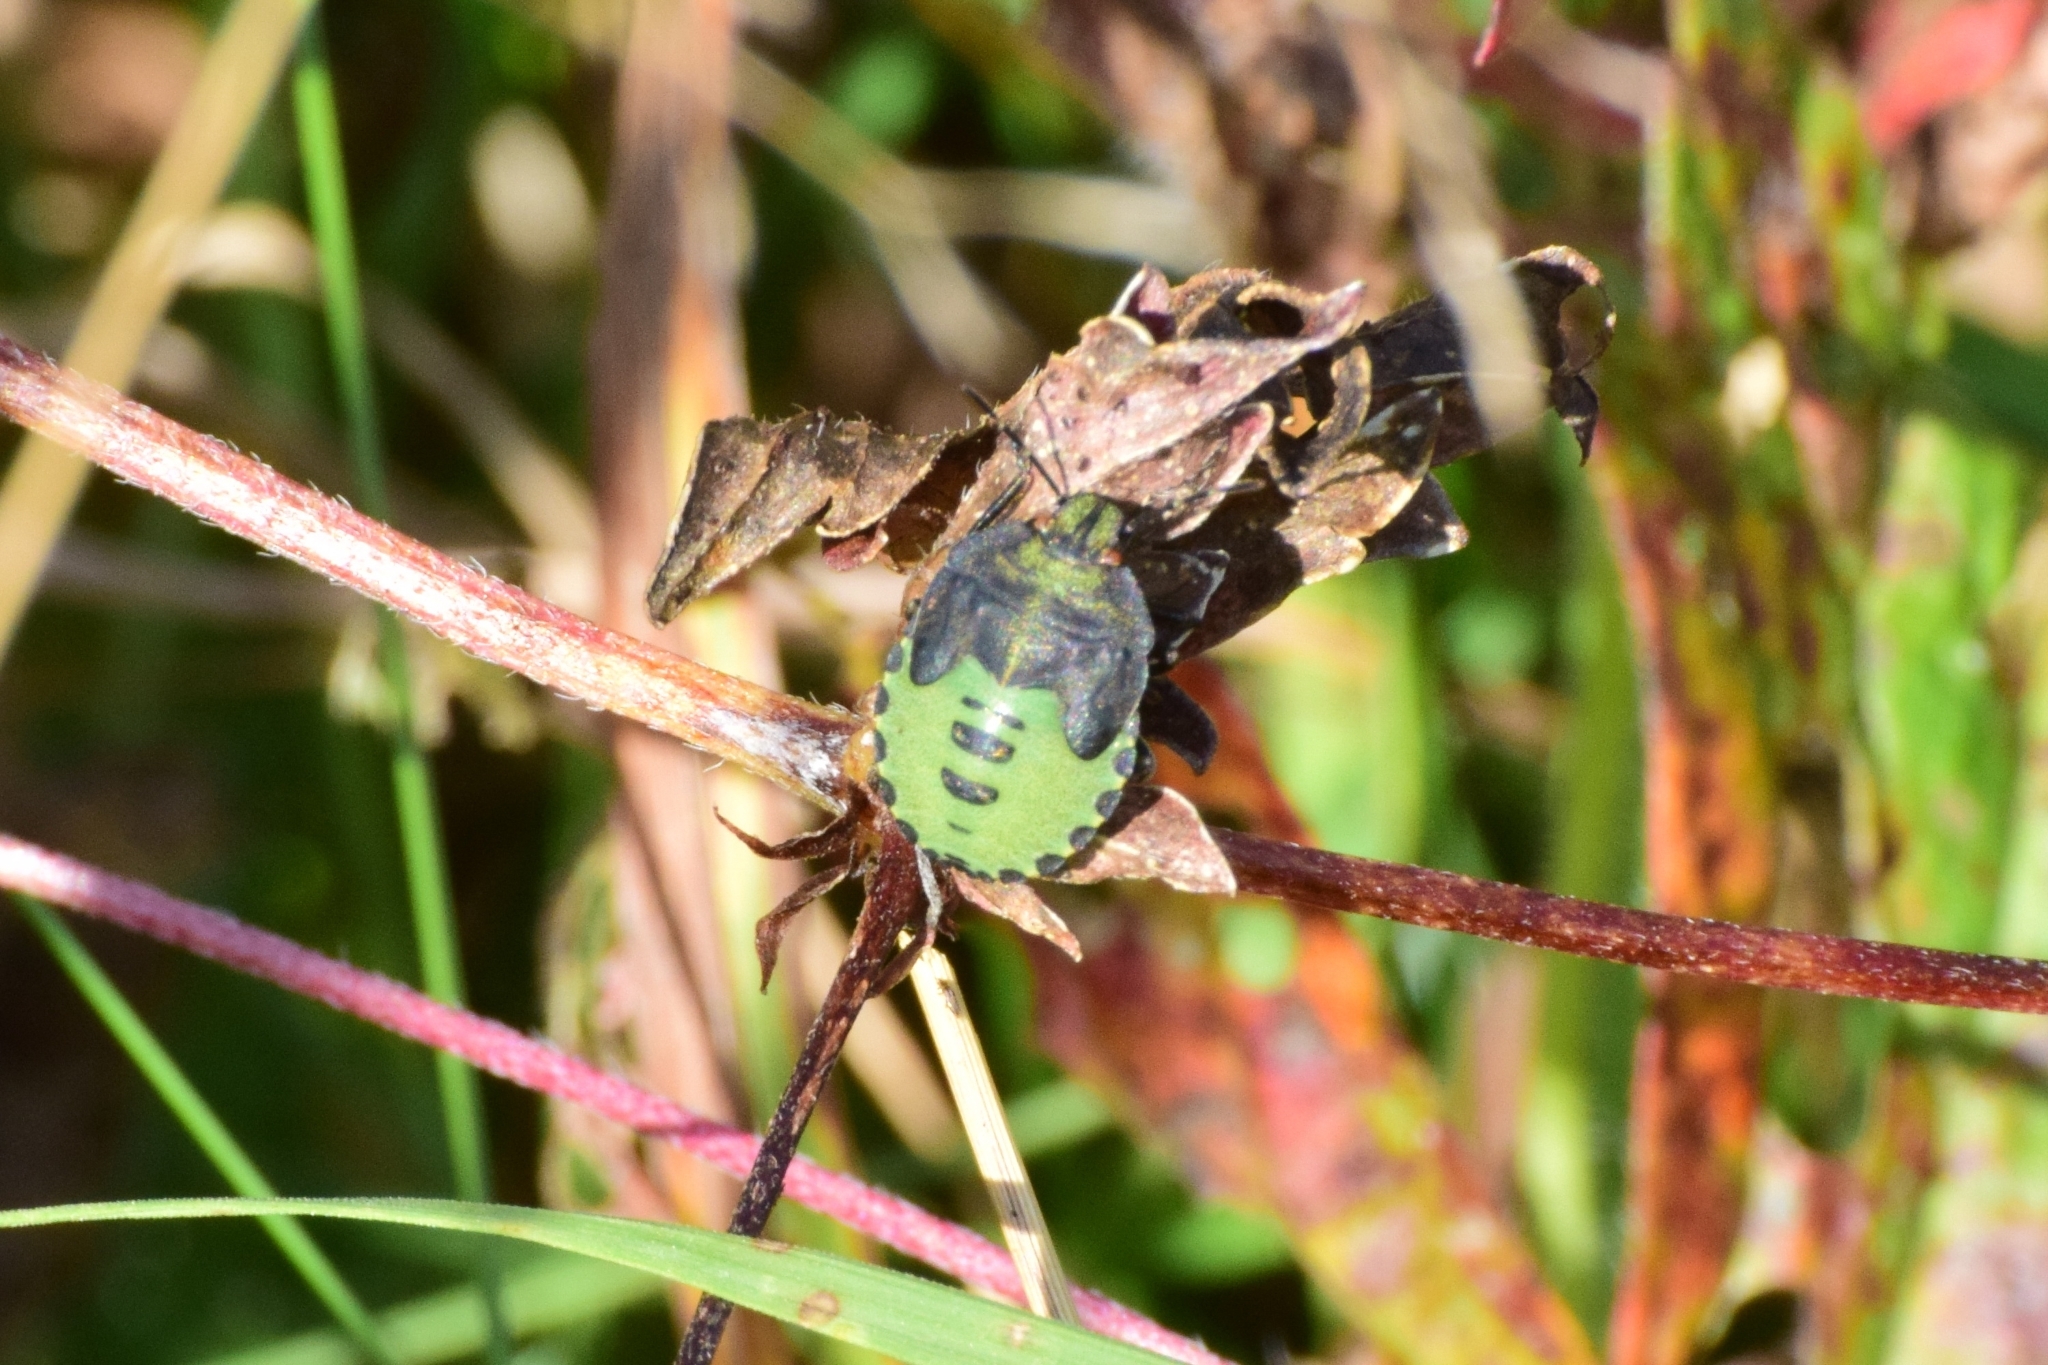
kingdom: Animalia
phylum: Arthropoda
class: Insecta
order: Hemiptera
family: Pentatomidae
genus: Palomena
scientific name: Palomena prasina
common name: Green shieldbug
